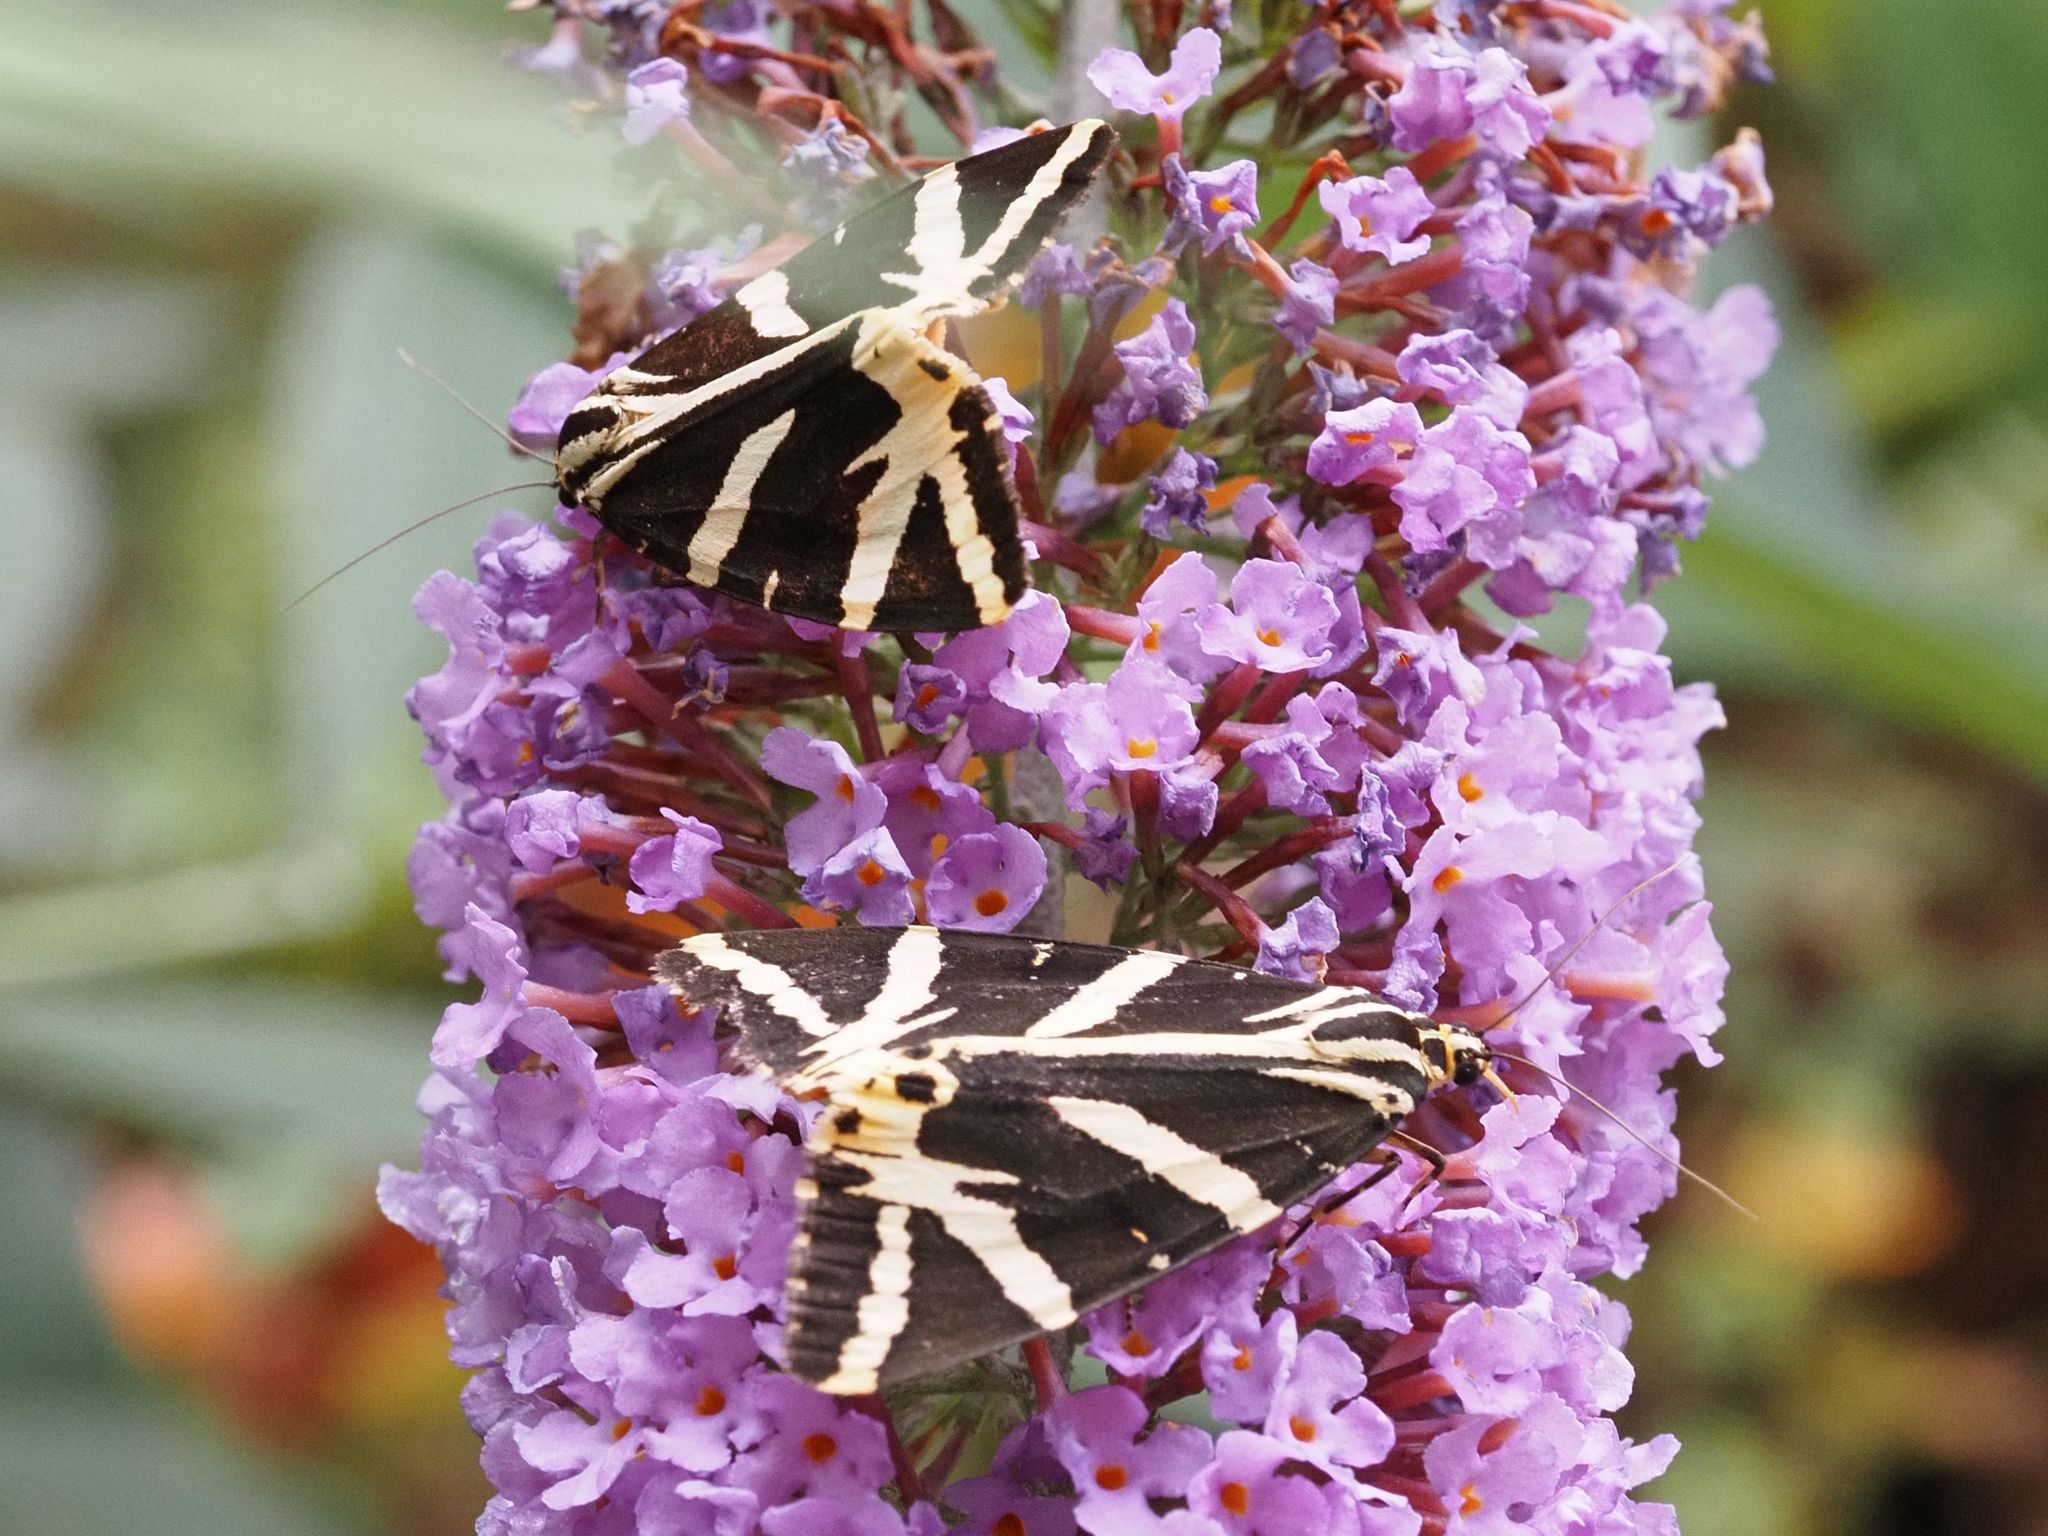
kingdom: Animalia
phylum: Arthropoda
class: Insecta
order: Lepidoptera
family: Erebidae
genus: Euplagia
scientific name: Euplagia quadripunctaria
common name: Jersey tiger
